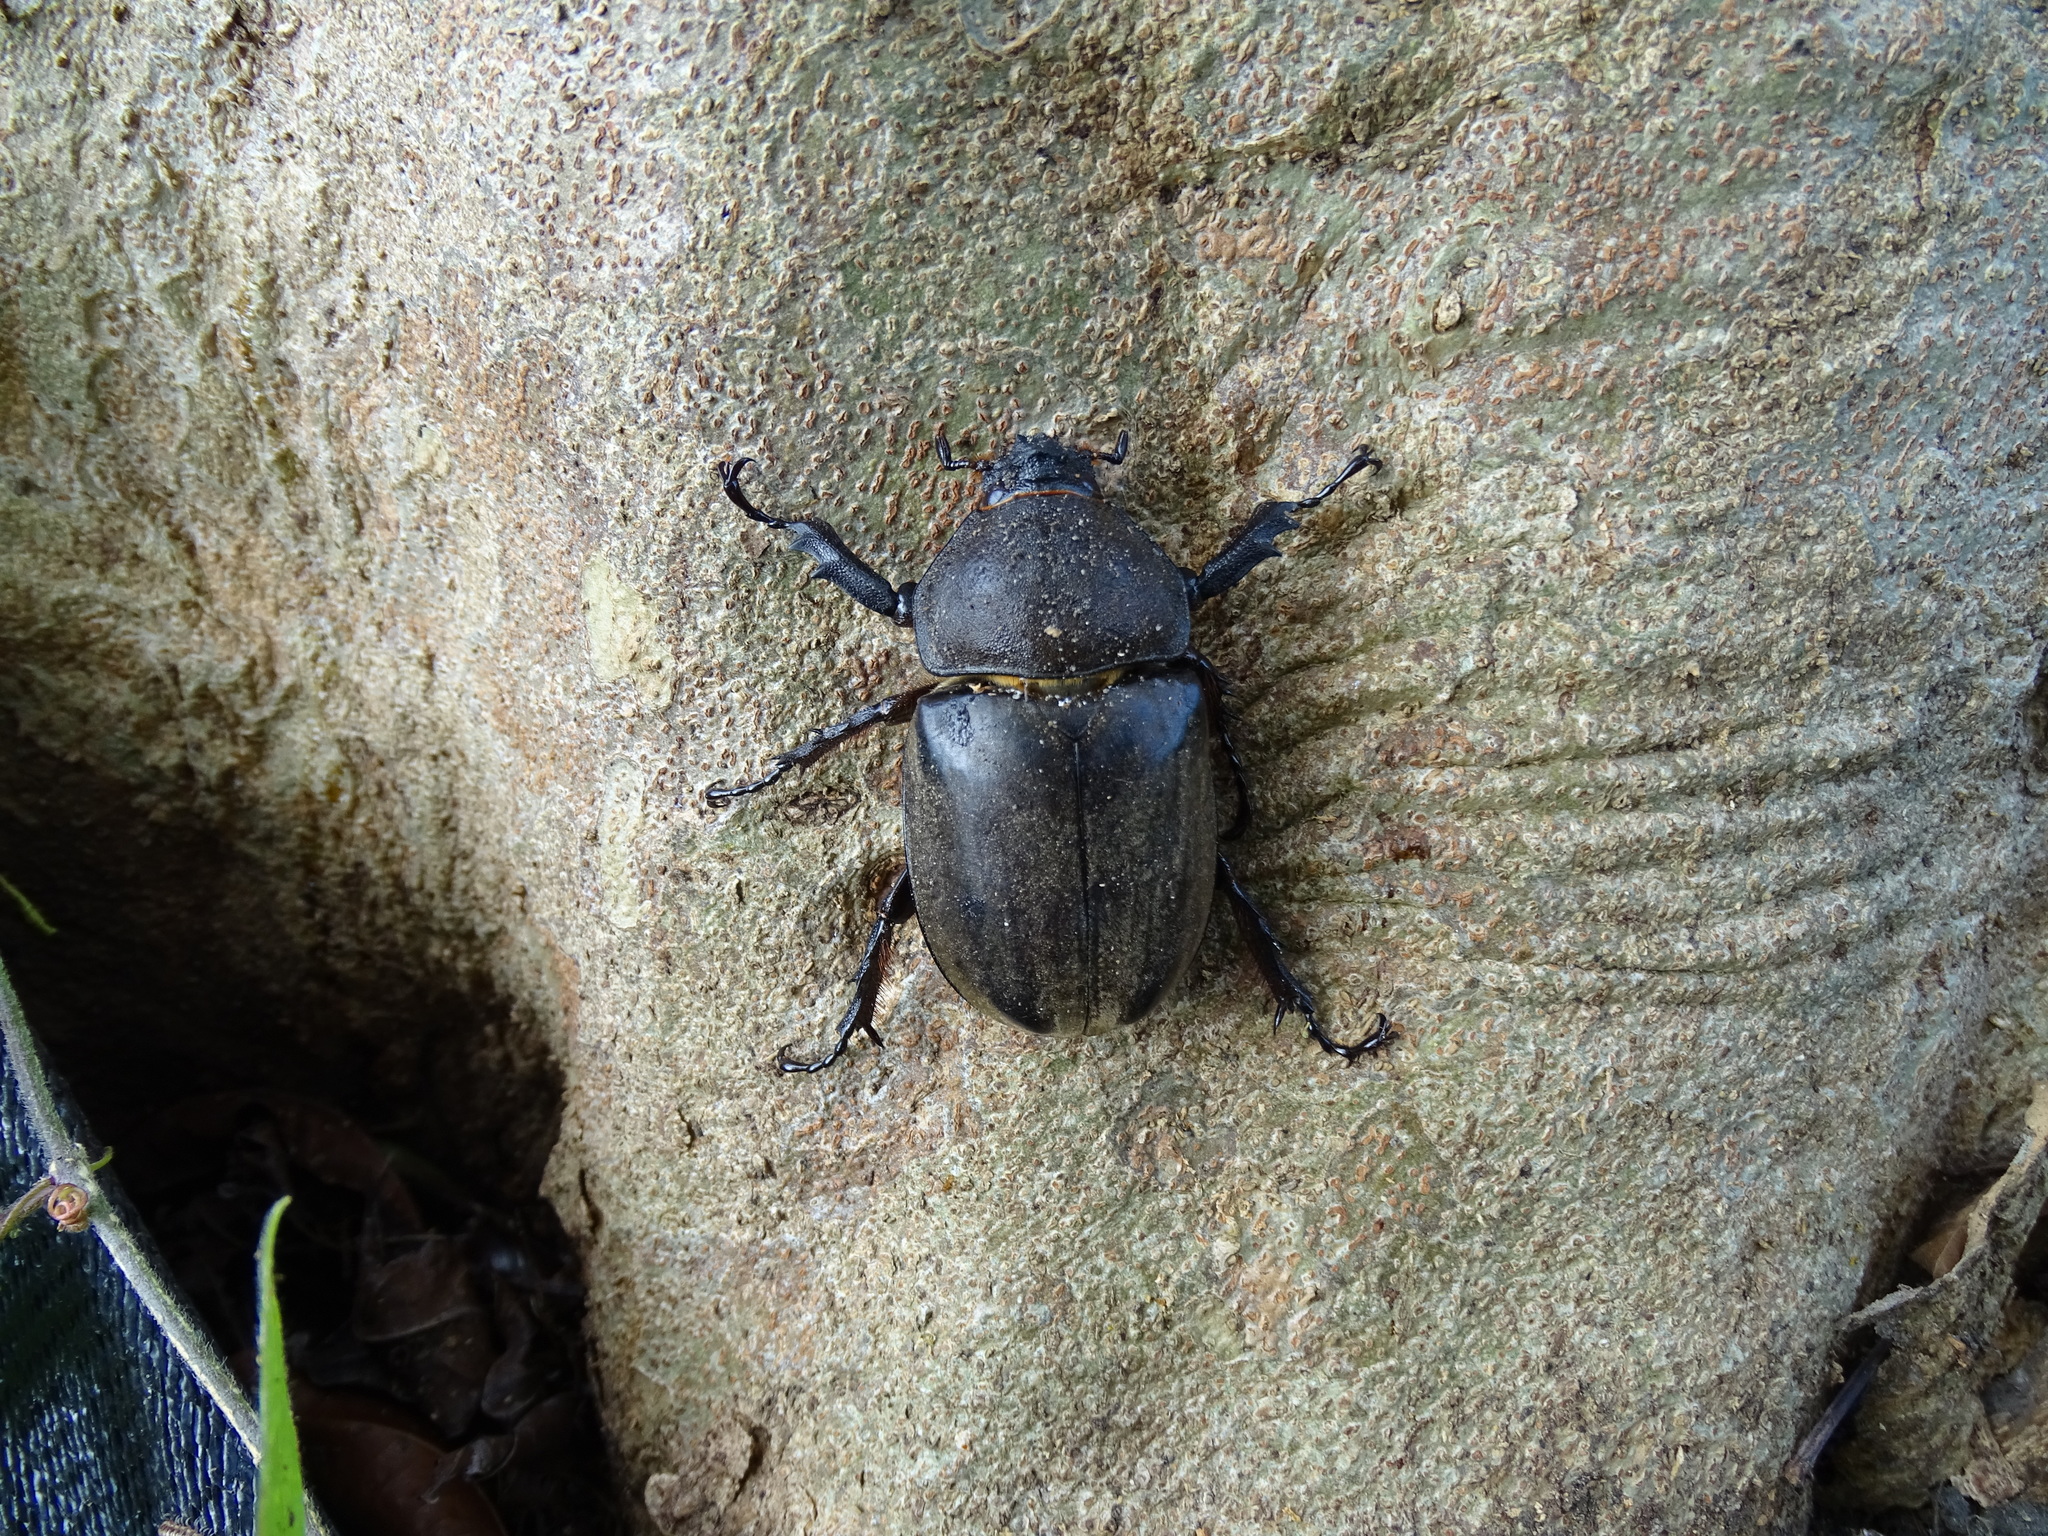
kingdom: Animalia
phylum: Arthropoda
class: Insecta
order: Coleoptera
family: Scarabaeidae
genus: Trypoxylus
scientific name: Trypoxylus dichotomus
